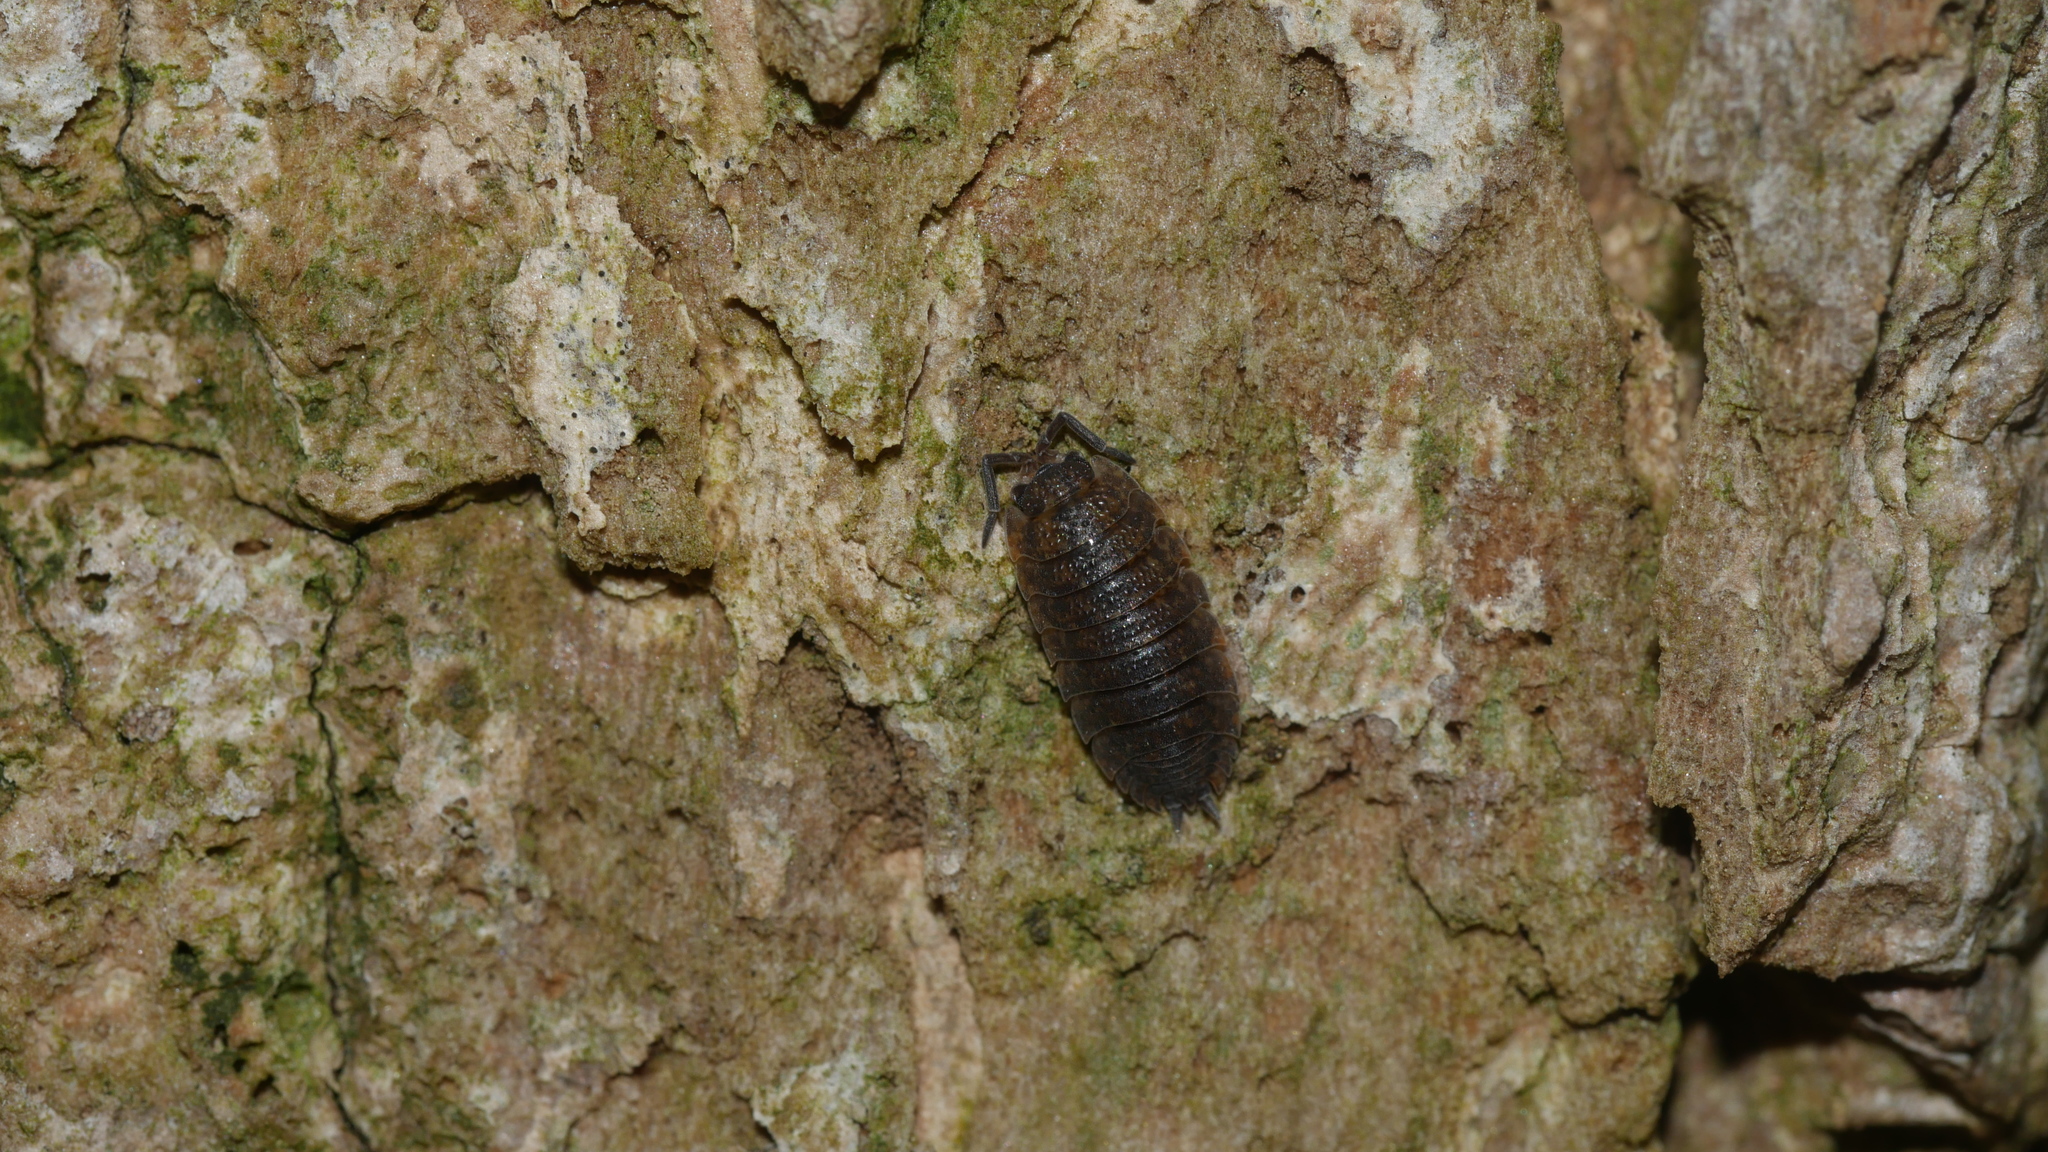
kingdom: Animalia
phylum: Arthropoda
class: Malacostraca
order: Isopoda
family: Porcellionidae
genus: Porcellio
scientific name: Porcellio scaber
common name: Common rough woodlouse
